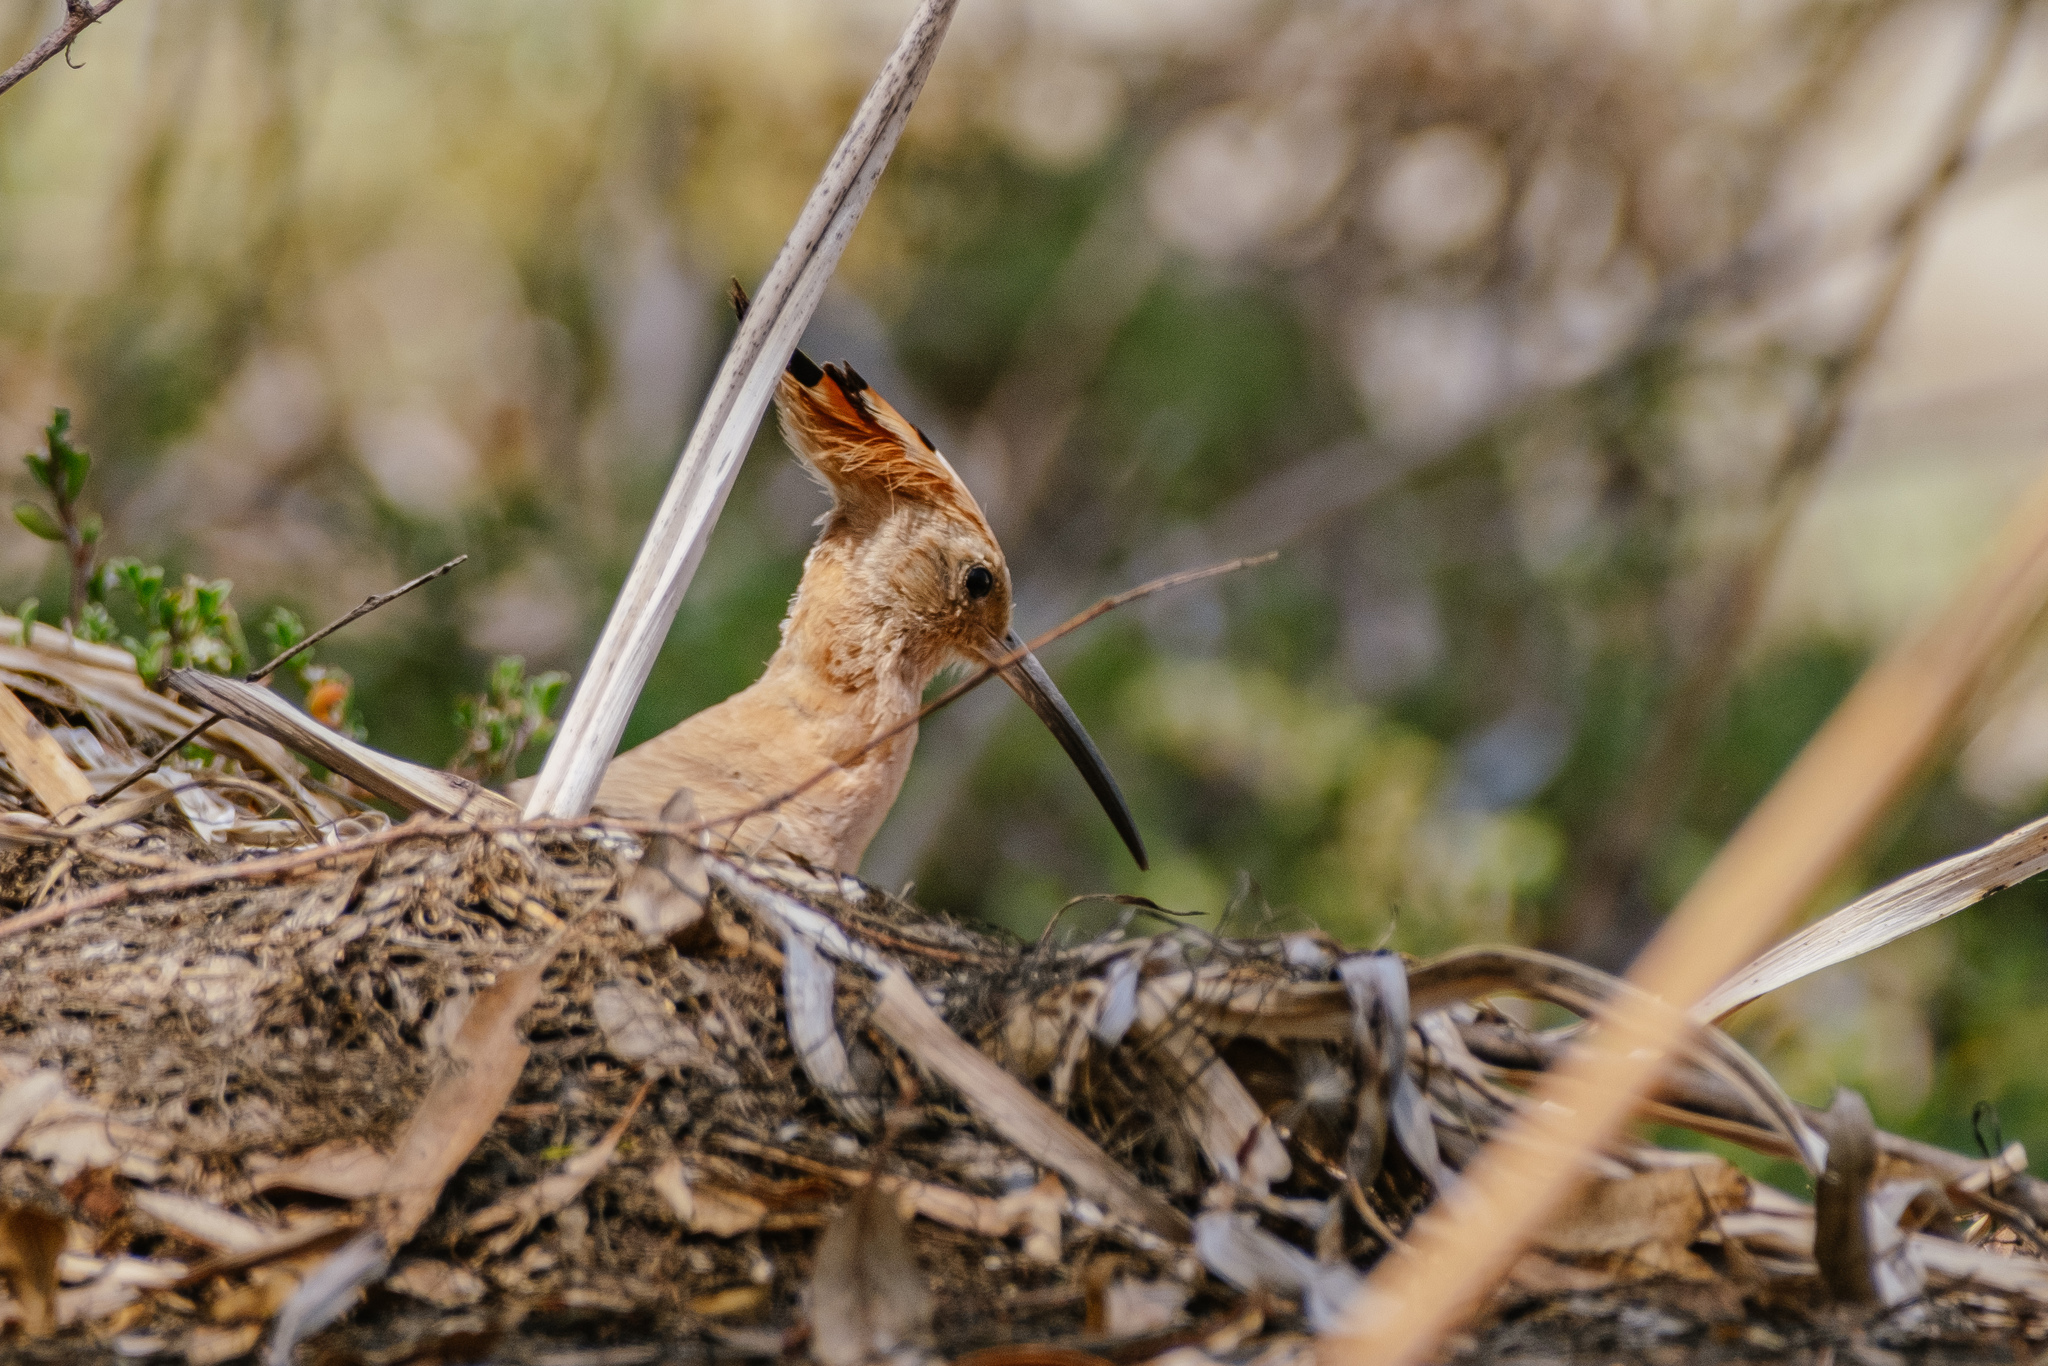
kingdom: Animalia
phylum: Chordata
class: Aves
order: Bucerotiformes
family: Upupidae
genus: Upupa
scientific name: Upupa epops
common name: Eurasian hoopoe
